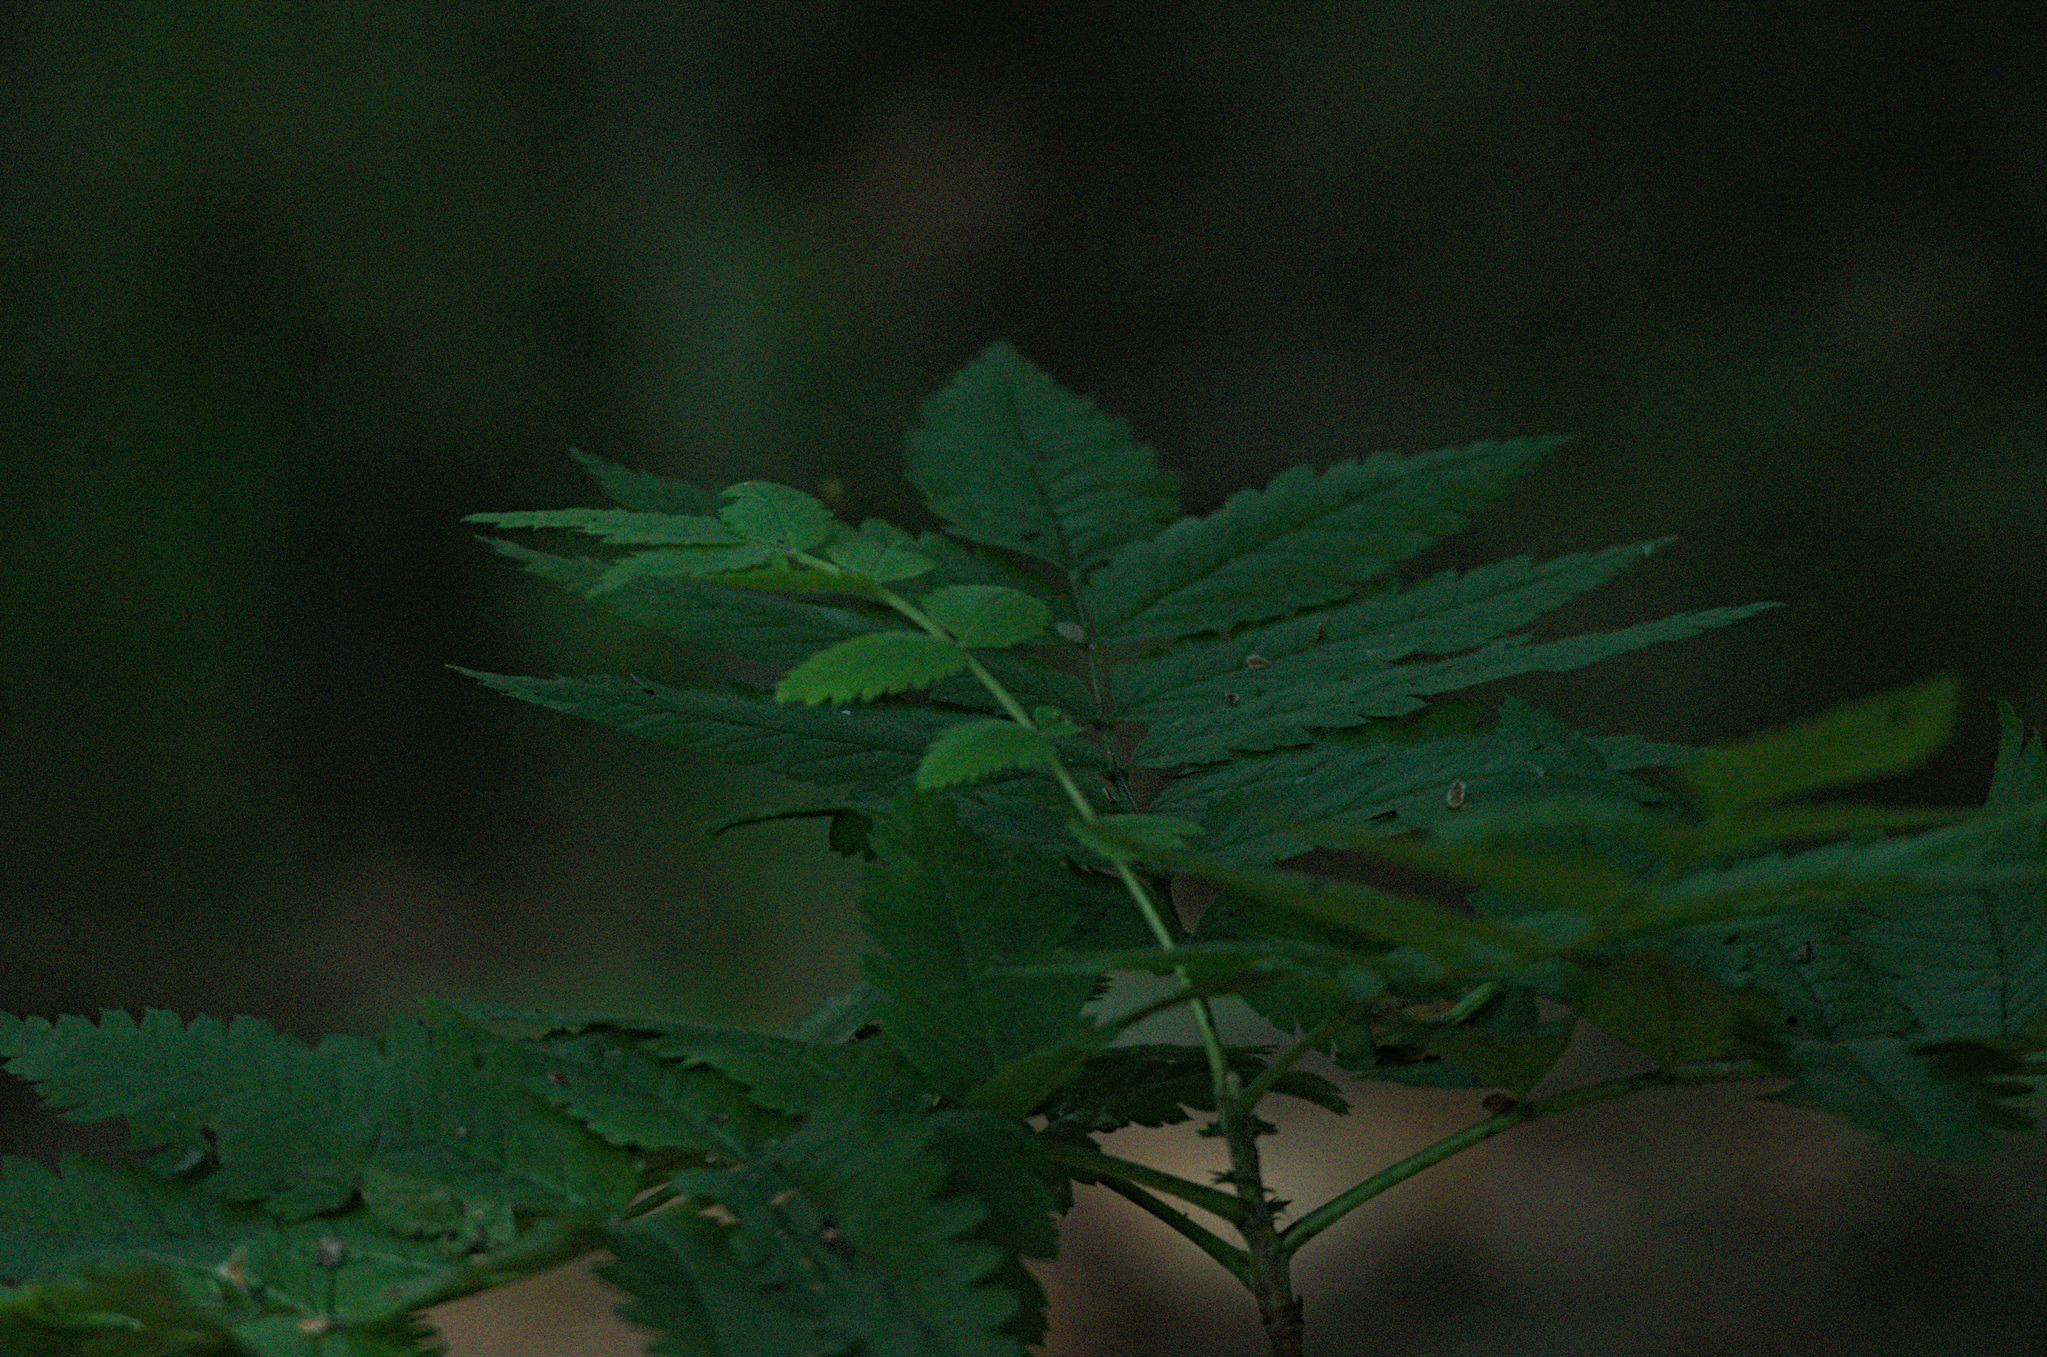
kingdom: Plantae
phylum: Tracheophyta
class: Magnoliopsida
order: Rosales
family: Rosaceae
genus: Sorbus
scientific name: Sorbus aucuparia
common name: Rowan
